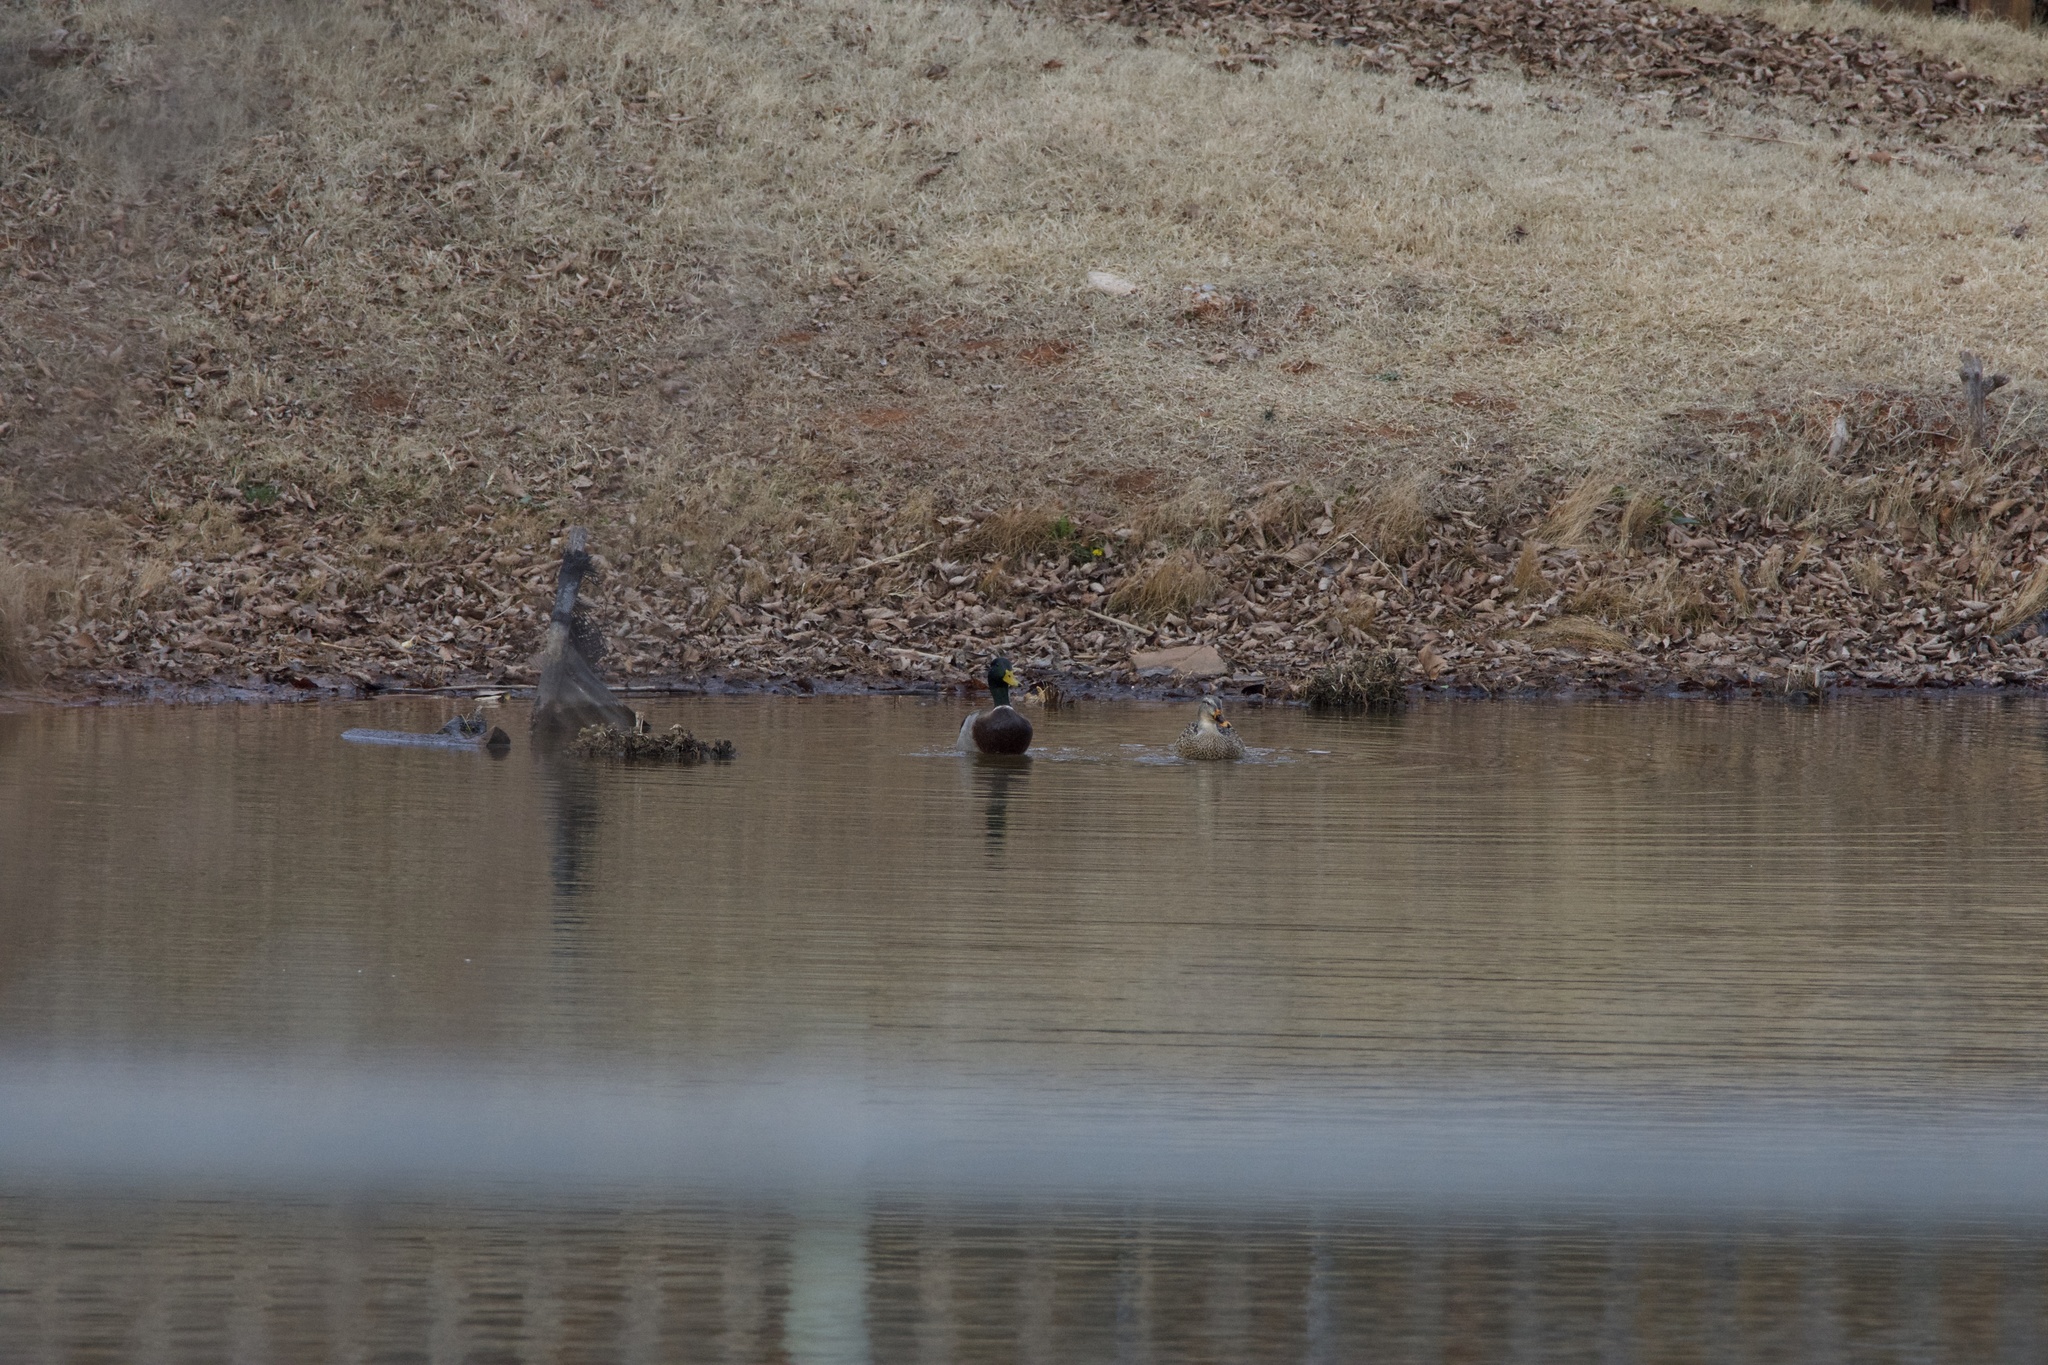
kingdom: Animalia
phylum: Chordata
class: Aves
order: Anseriformes
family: Anatidae
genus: Anas
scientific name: Anas platyrhynchos
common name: Mallard
